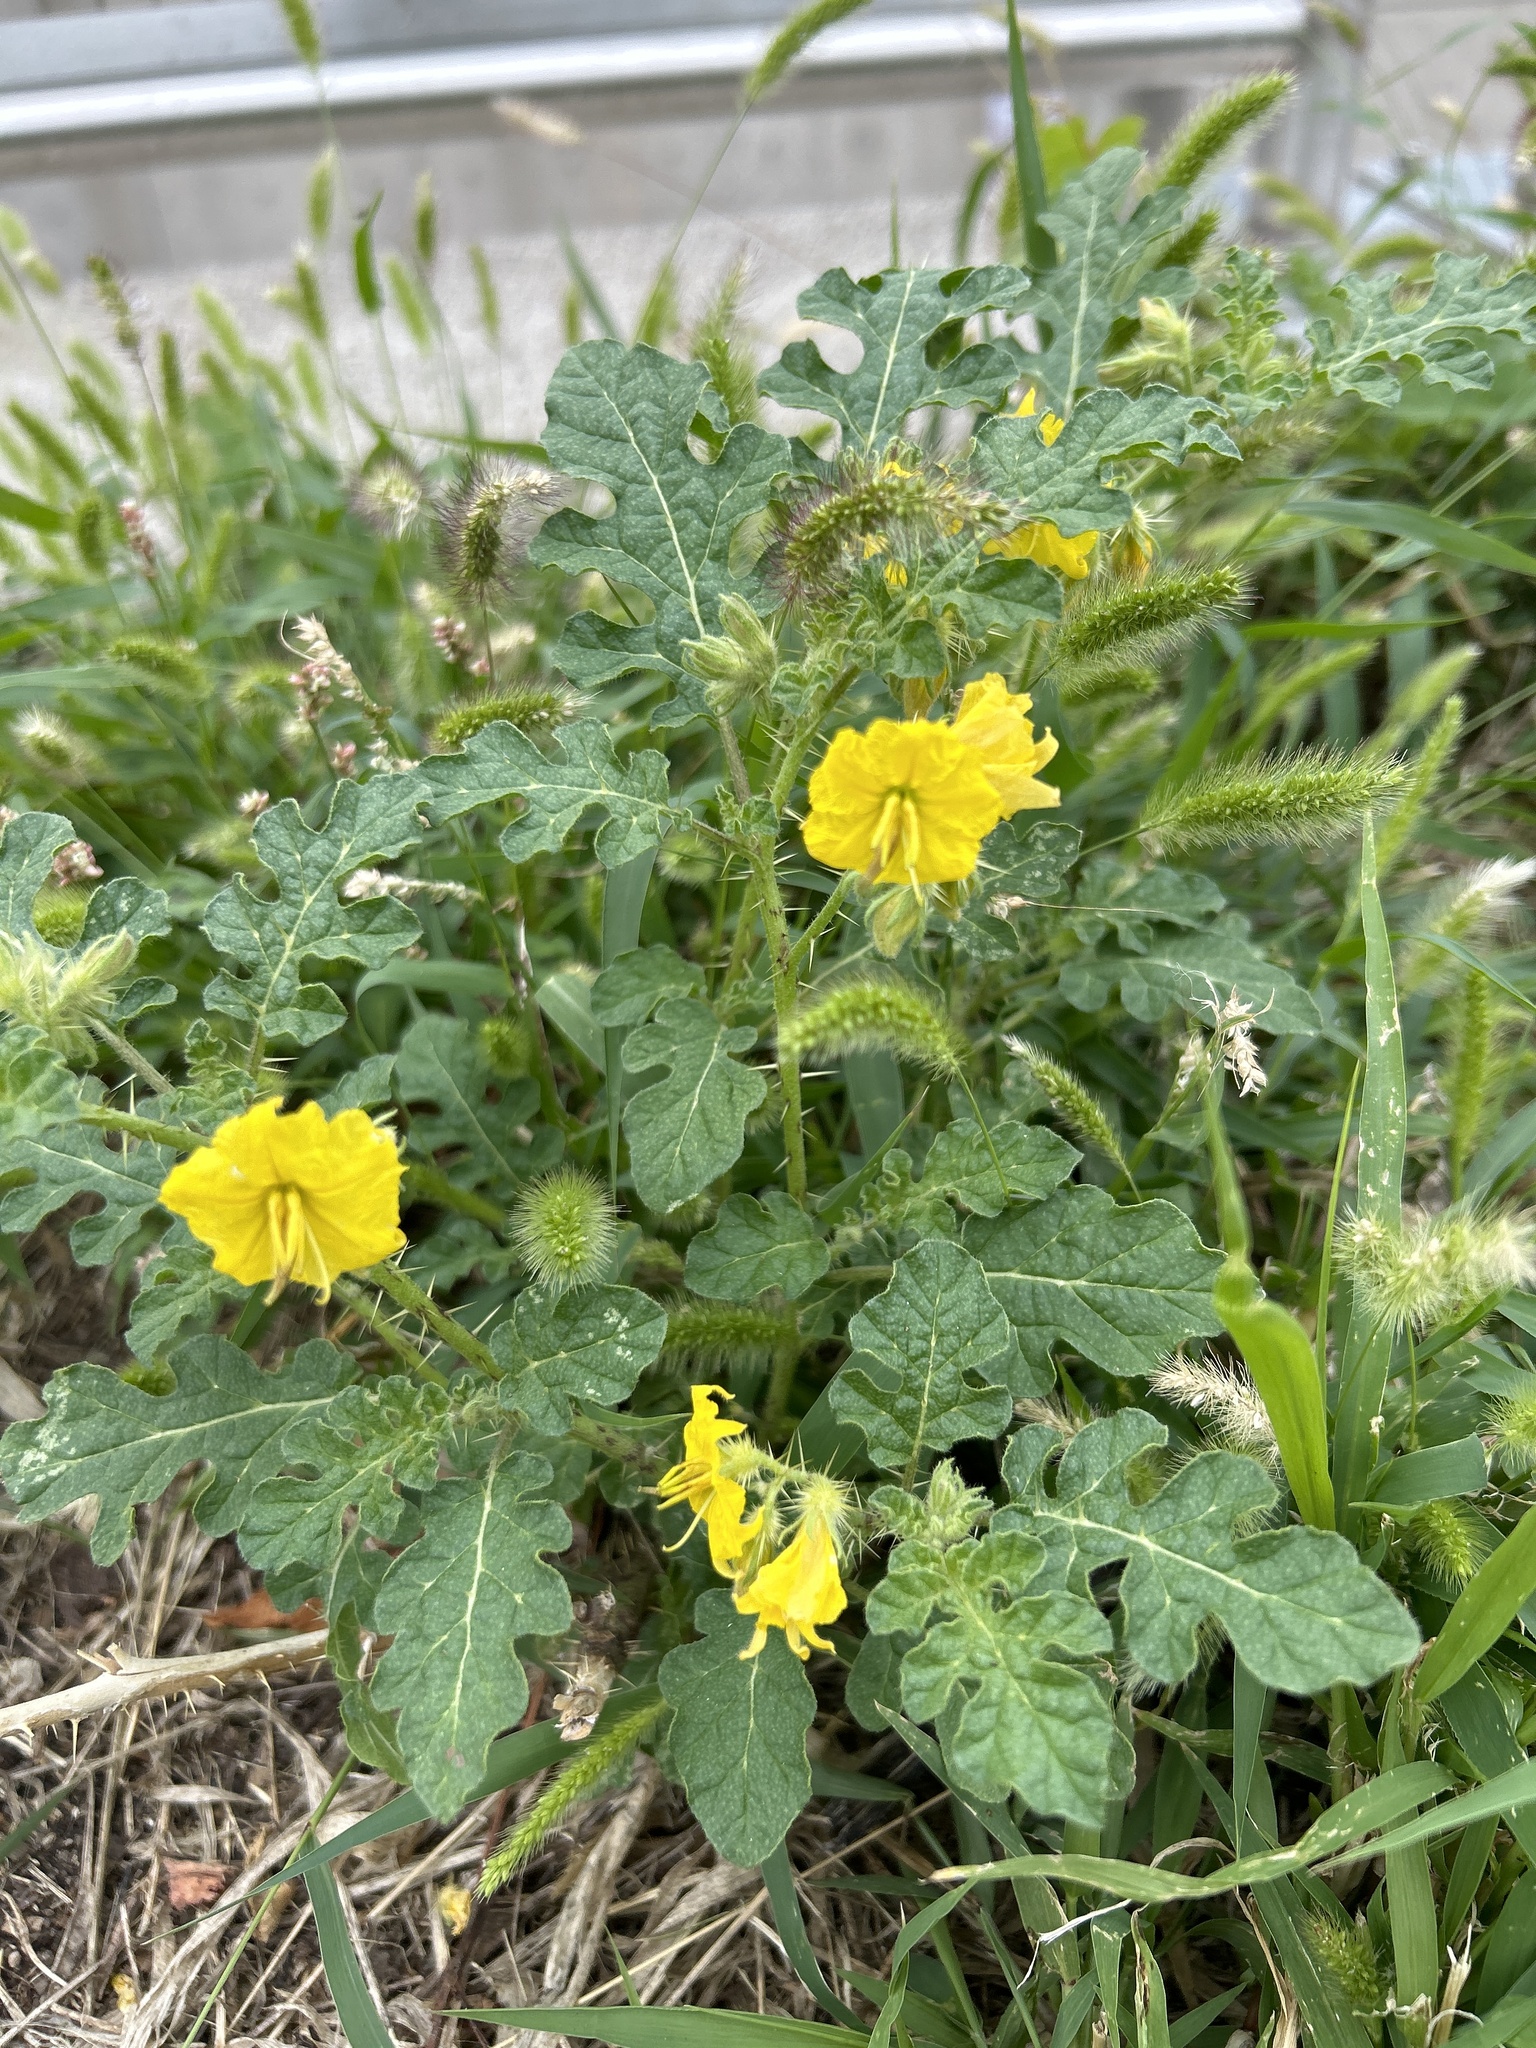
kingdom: Plantae
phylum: Tracheophyta
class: Magnoliopsida
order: Solanales
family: Solanaceae
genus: Solanum
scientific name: Solanum angustifolium
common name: Buffalobur nightshade
